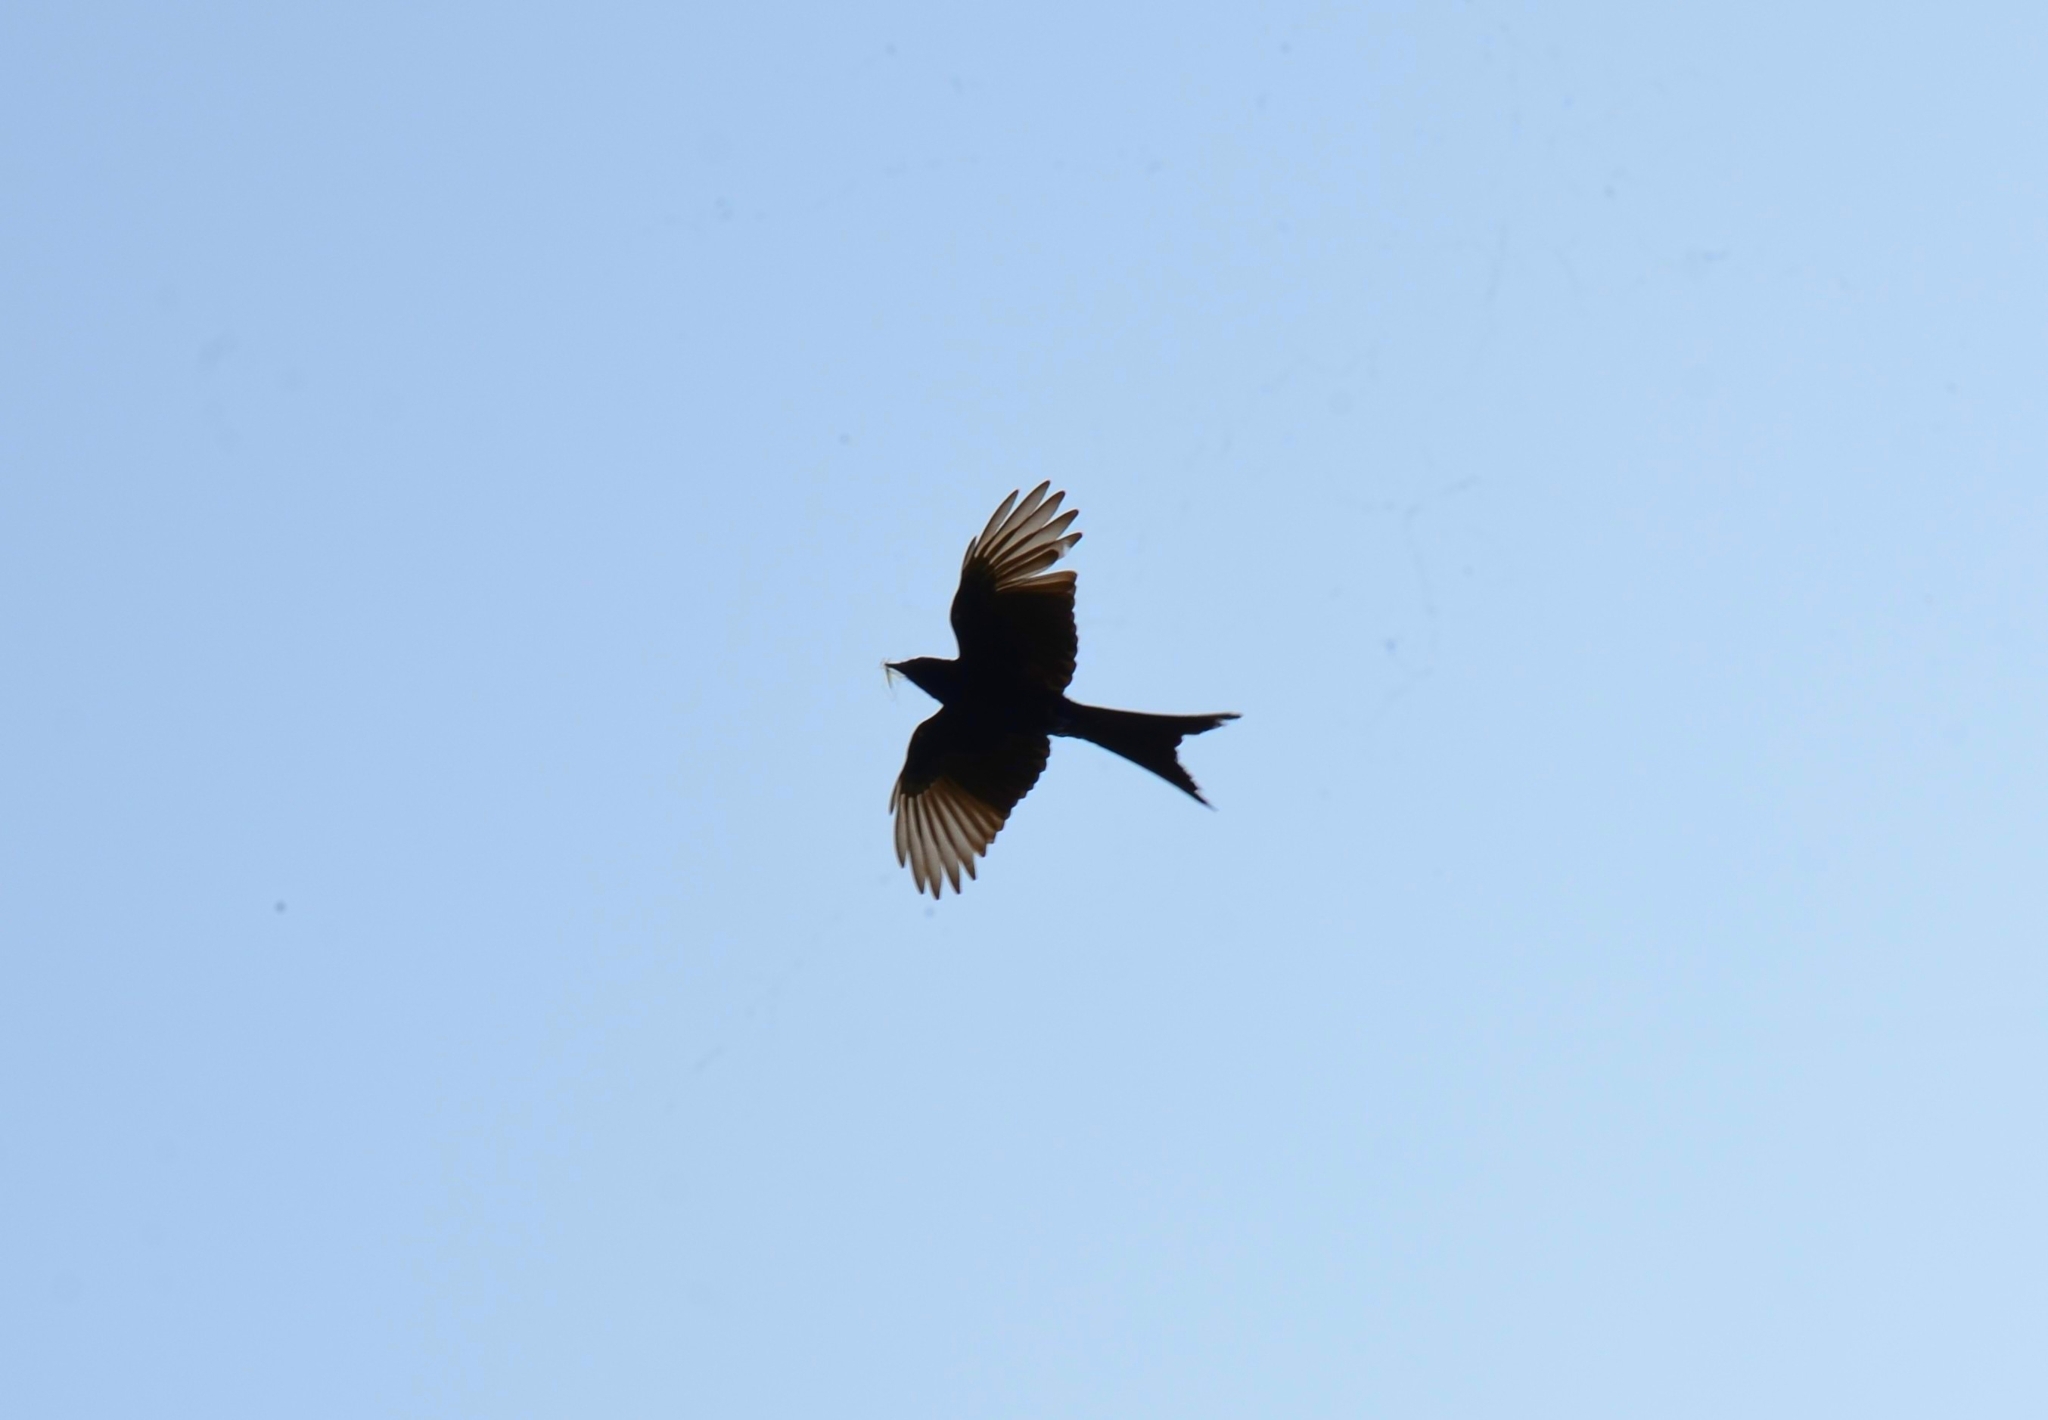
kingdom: Animalia
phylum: Chordata
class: Aves
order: Passeriformes
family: Dicruridae
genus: Dicrurus
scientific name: Dicrurus macrocercus
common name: Black drongo
